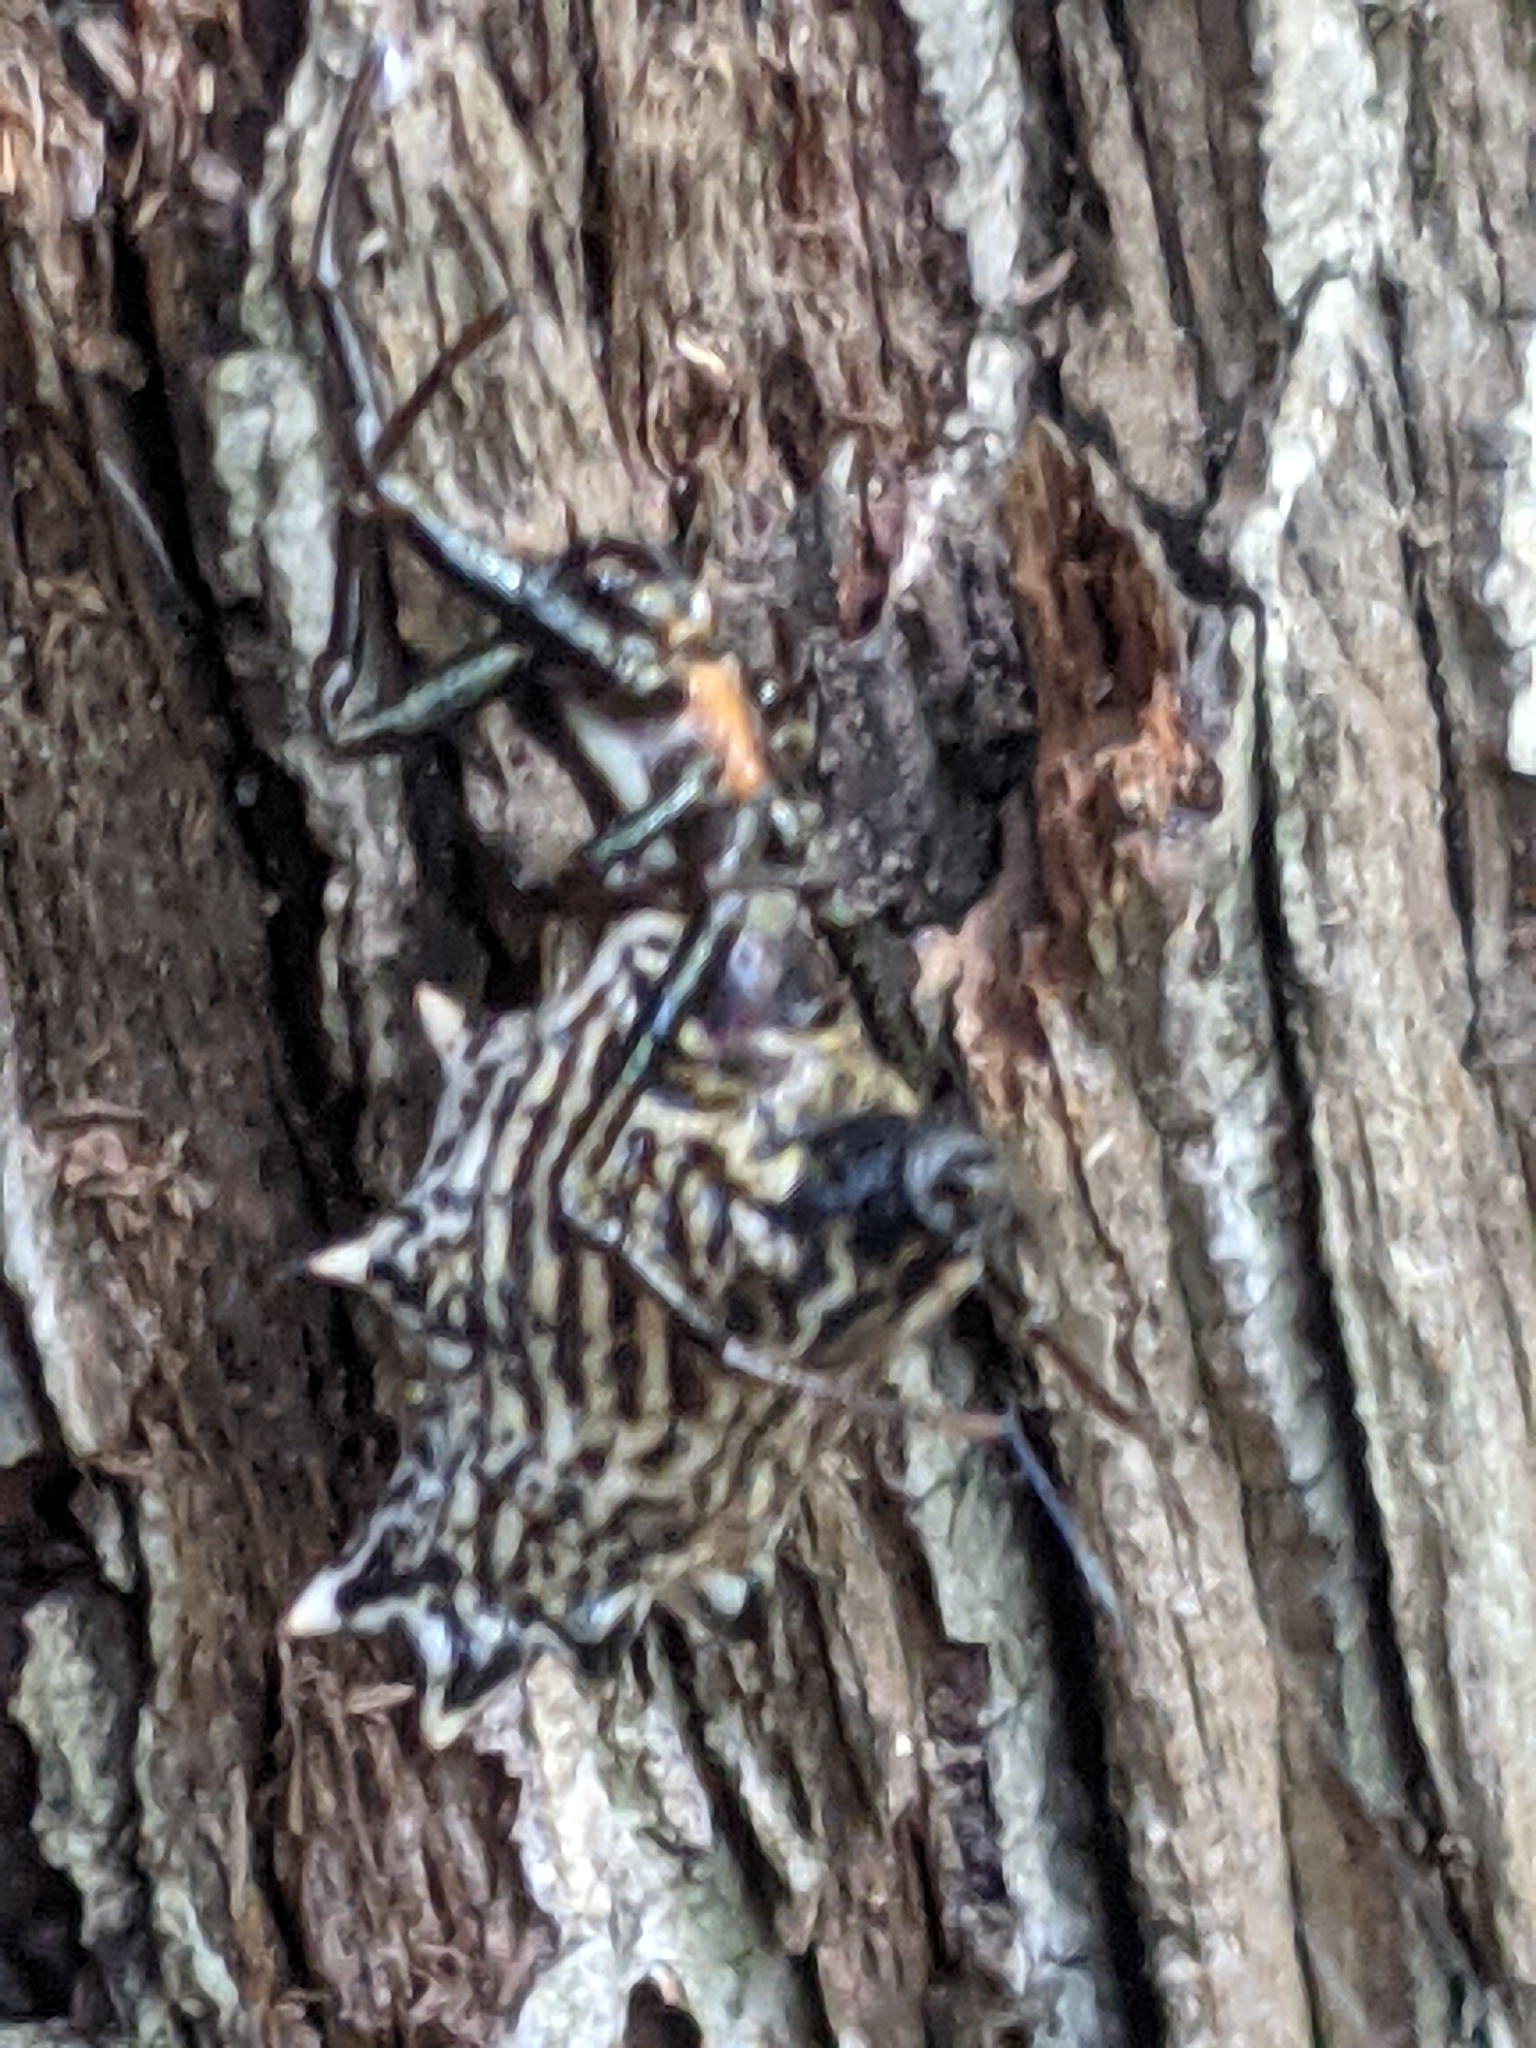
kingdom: Animalia
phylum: Arthropoda
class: Arachnida
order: Araneae
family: Araneidae
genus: Micrathena
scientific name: Micrathena gracilis
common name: Orb weavers
